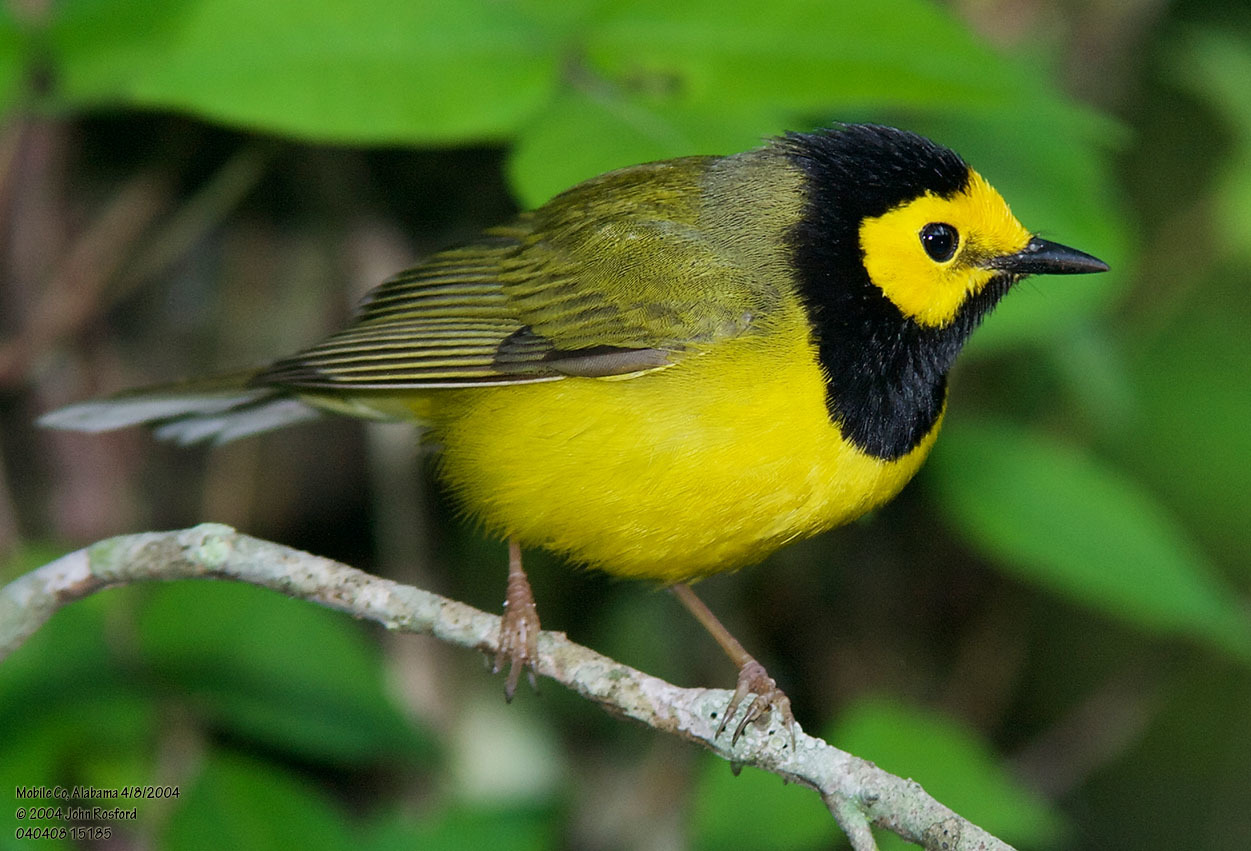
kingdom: Animalia
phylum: Chordata
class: Aves
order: Passeriformes
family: Parulidae
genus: Setophaga
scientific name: Setophaga citrina
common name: Hooded warbler
